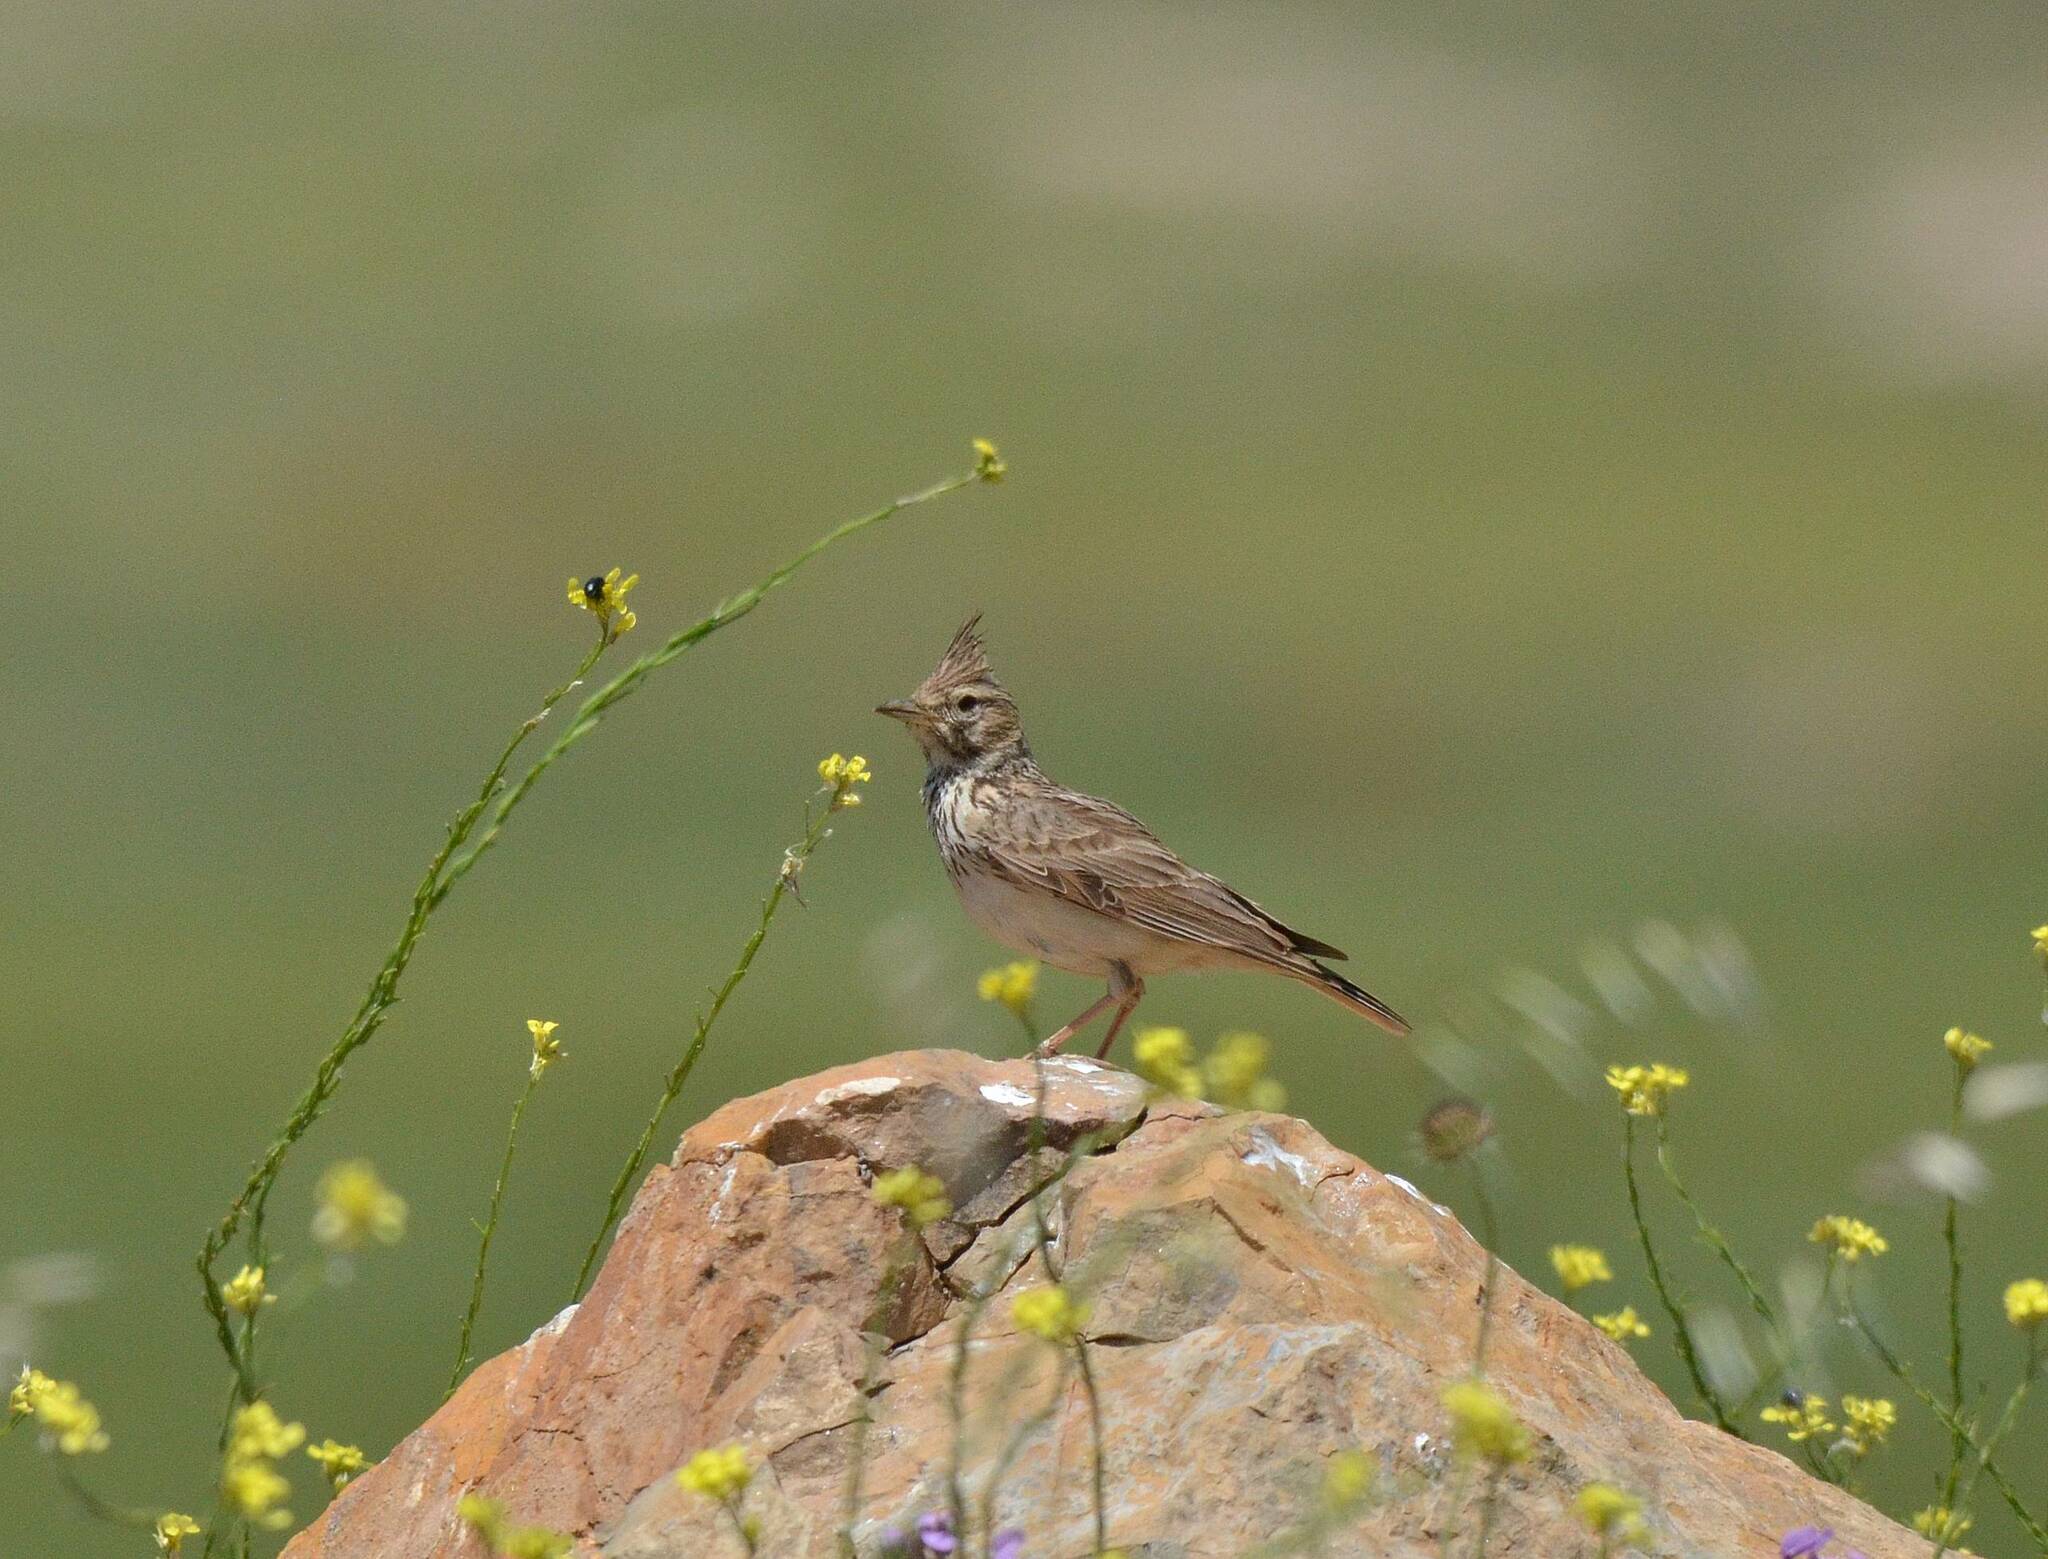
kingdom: Animalia
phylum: Chordata
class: Aves
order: Passeriformes
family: Alaudidae
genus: Galerida
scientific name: Galerida cristata
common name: Crested lark
